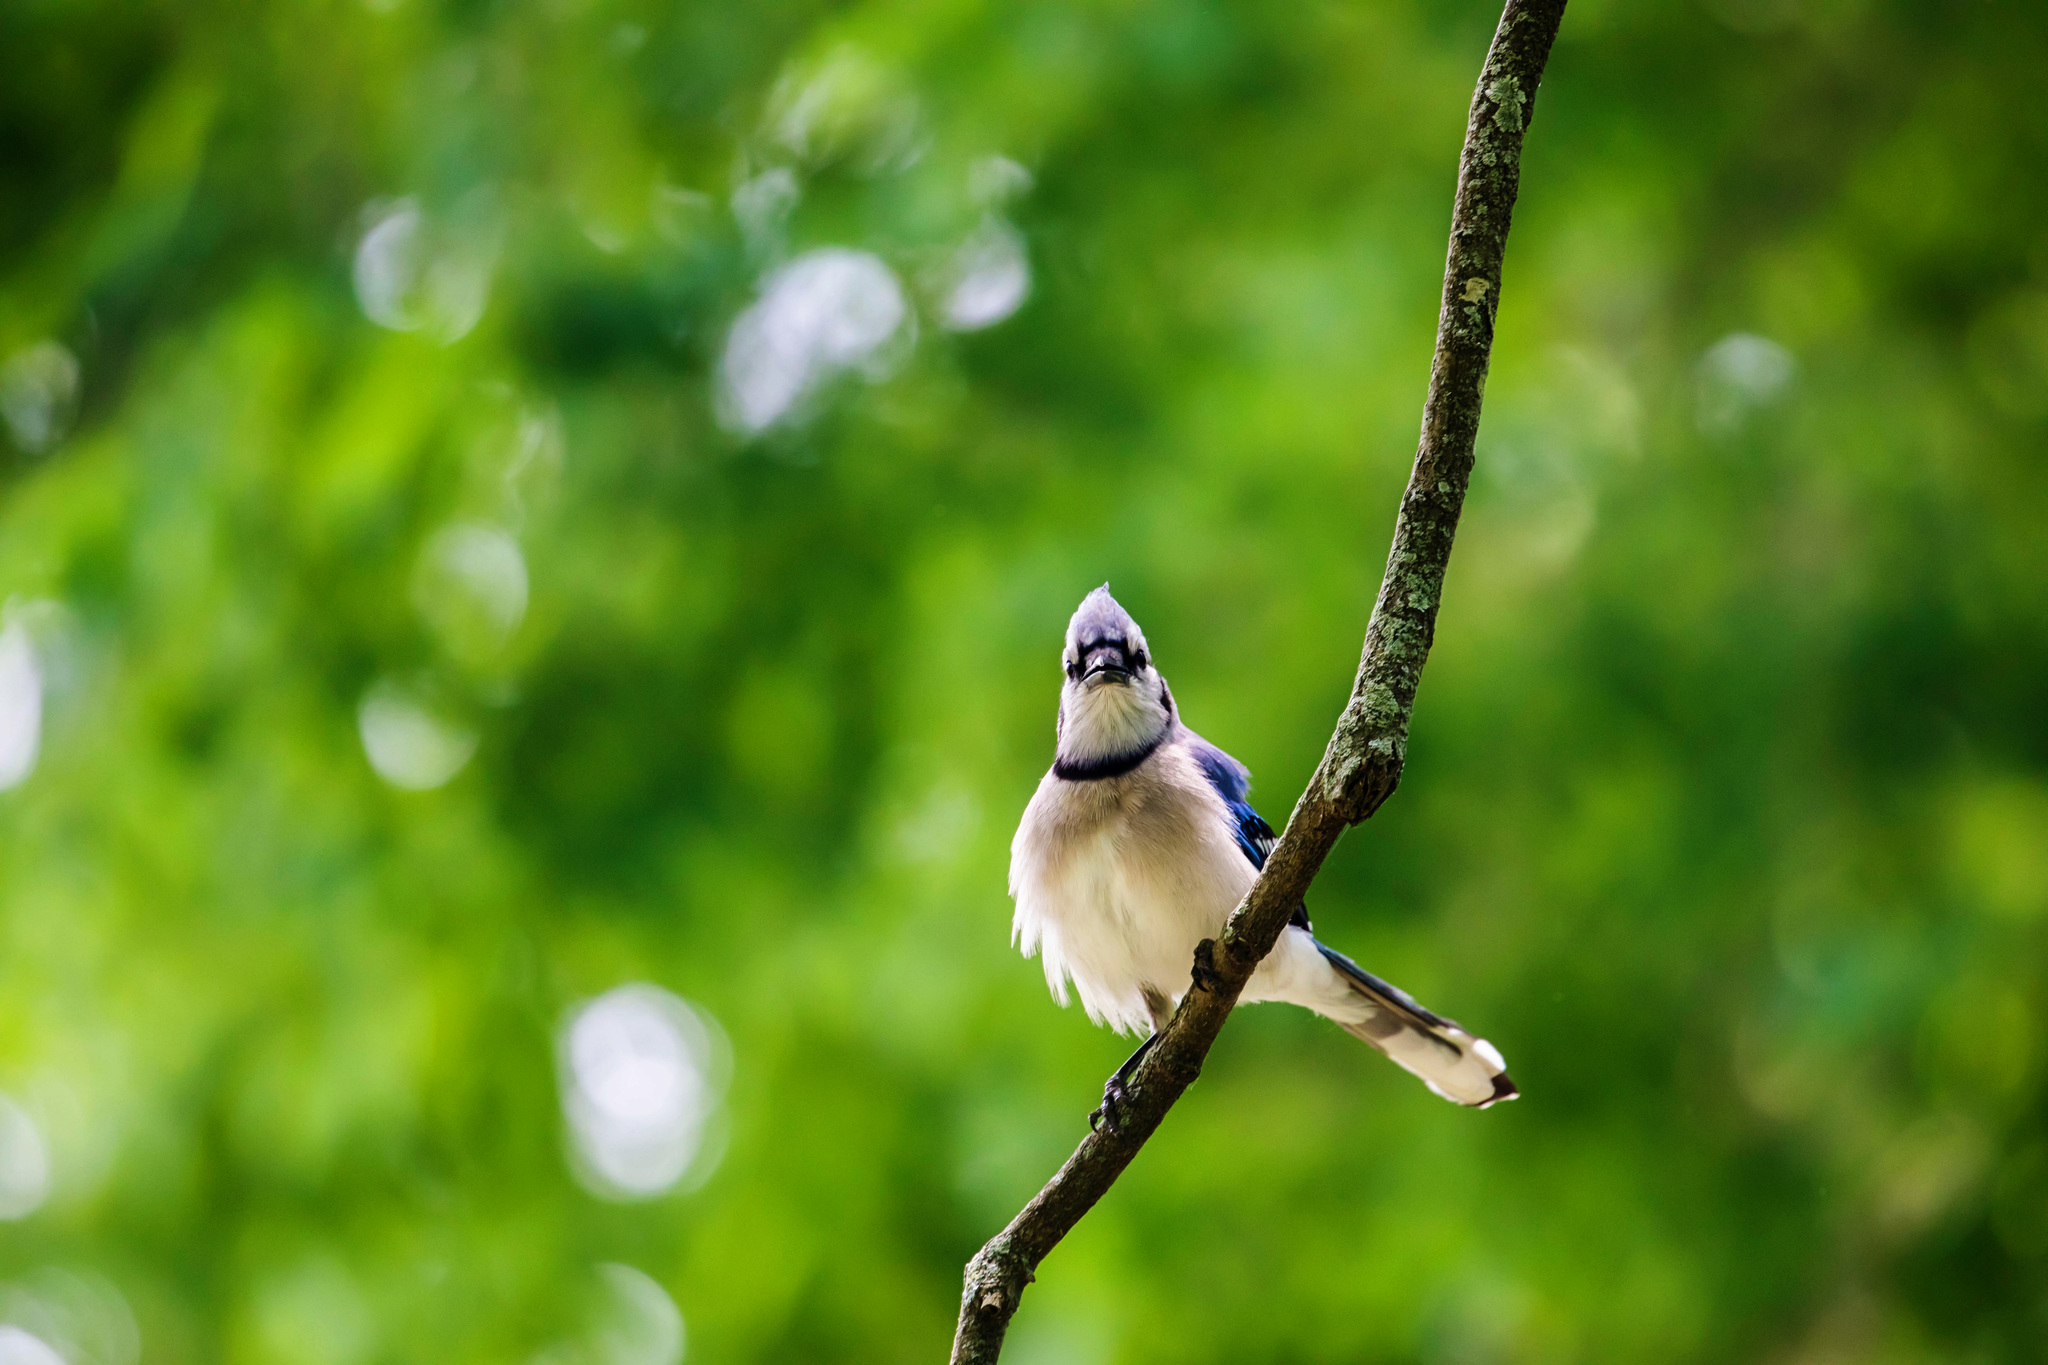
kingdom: Animalia
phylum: Chordata
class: Aves
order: Passeriformes
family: Corvidae
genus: Cyanocitta
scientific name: Cyanocitta cristata
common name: Blue jay
